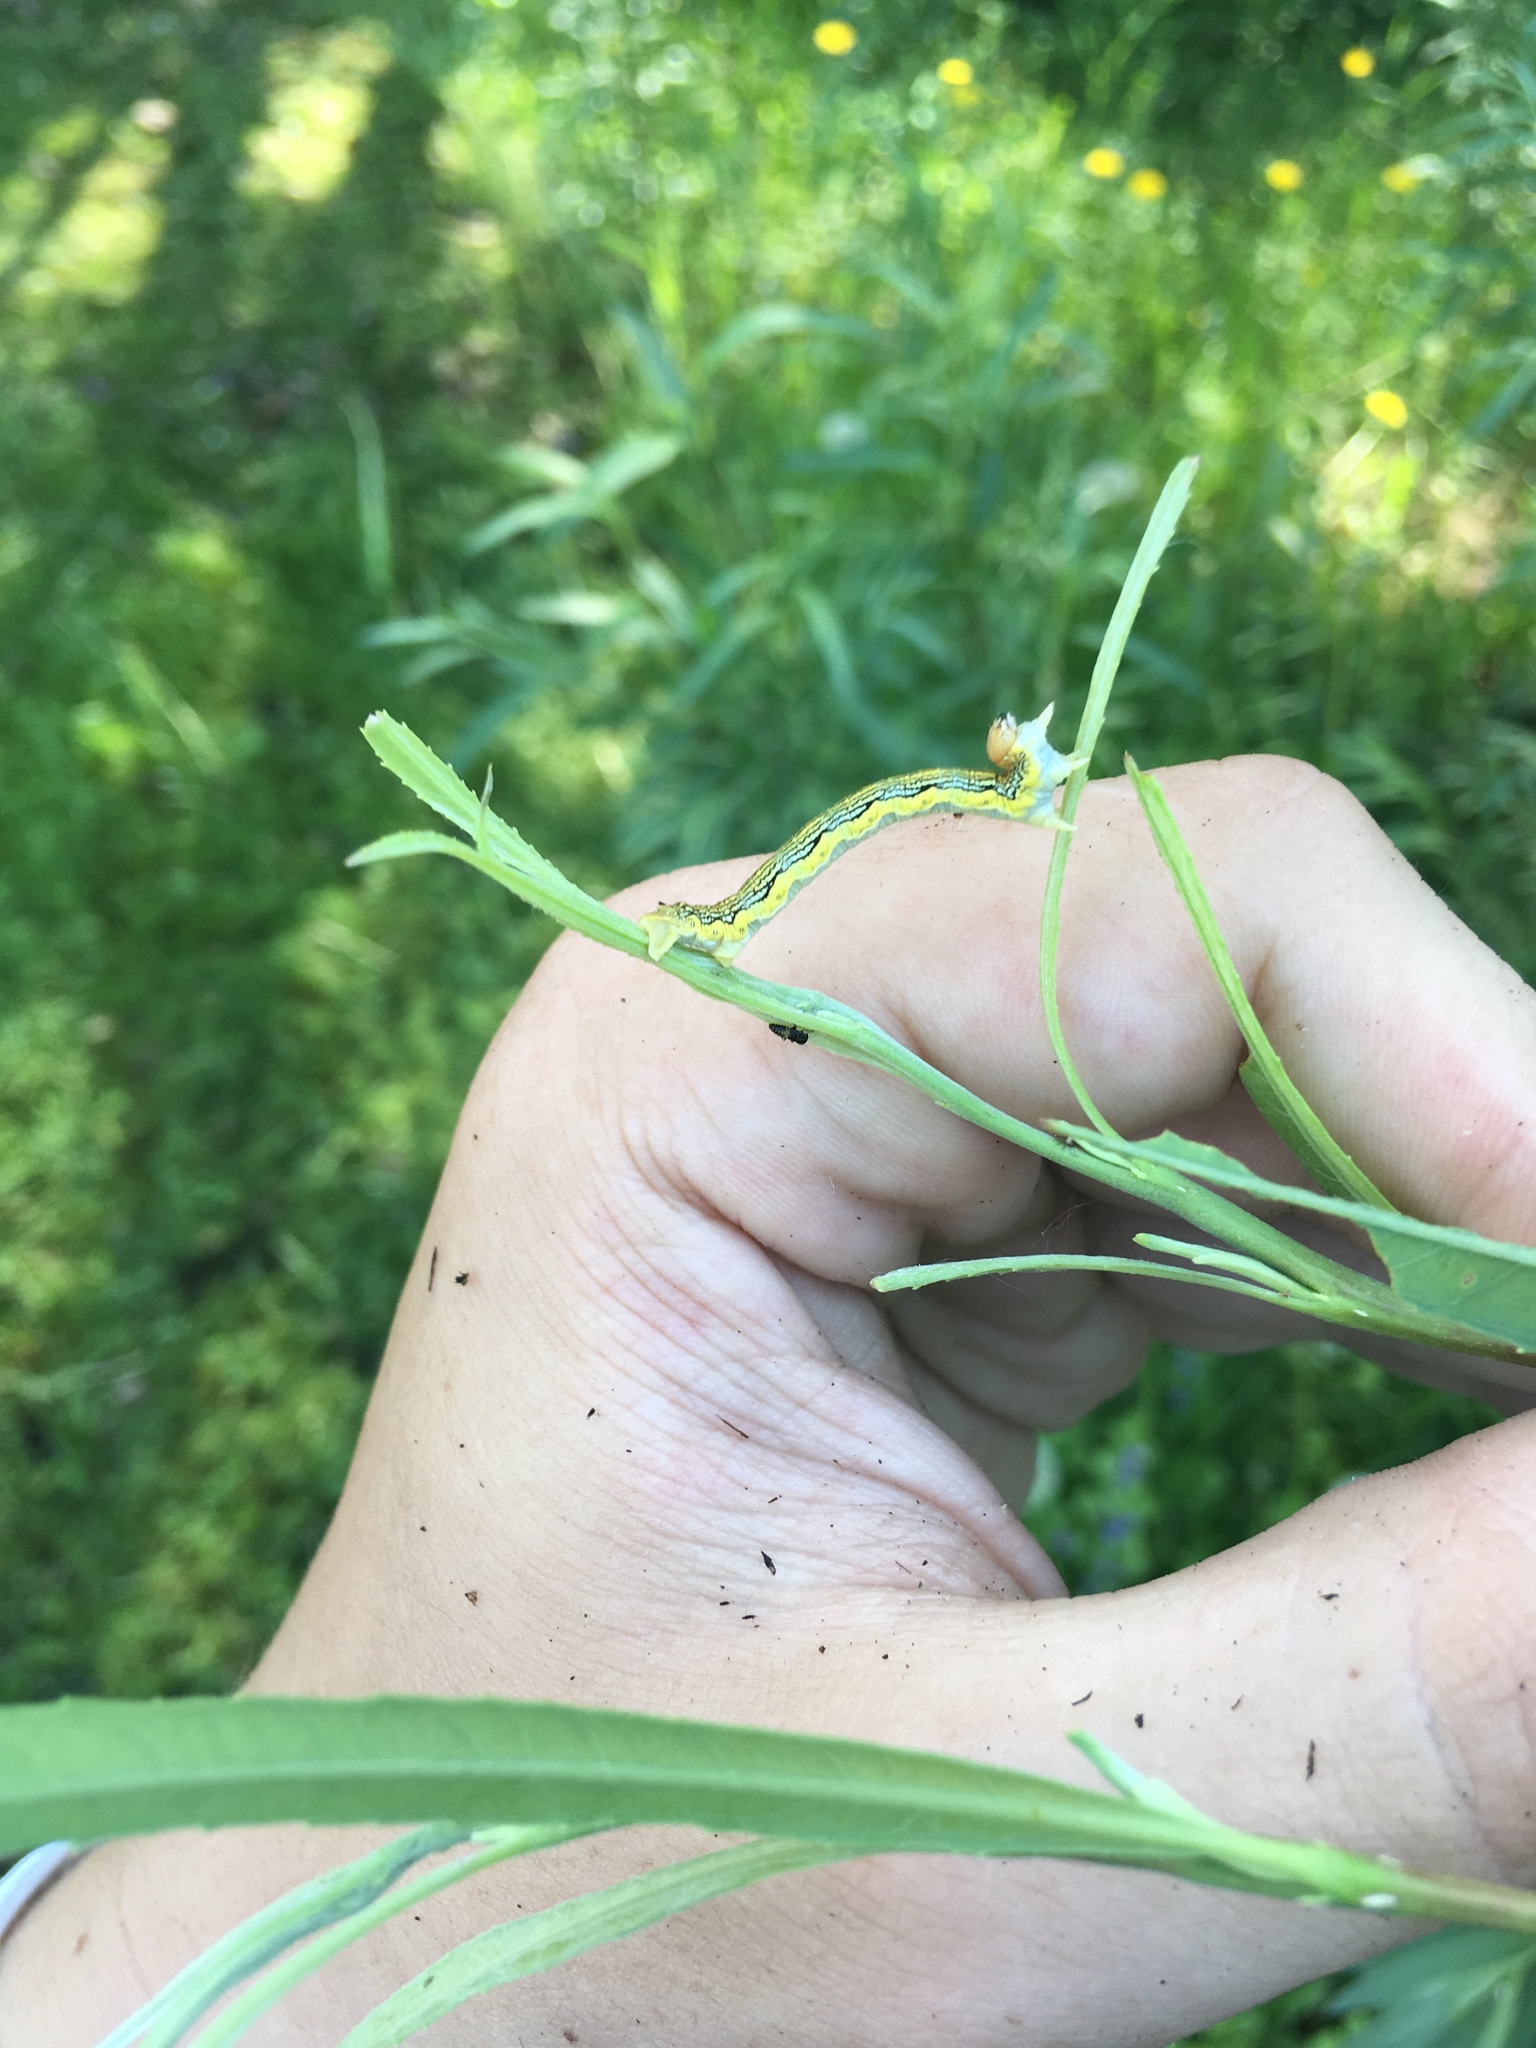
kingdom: Animalia
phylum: Arthropoda
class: Insecta
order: Lepidoptera
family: Geometridae
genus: Erannis
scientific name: Erannis tiliaria
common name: Linden looper
